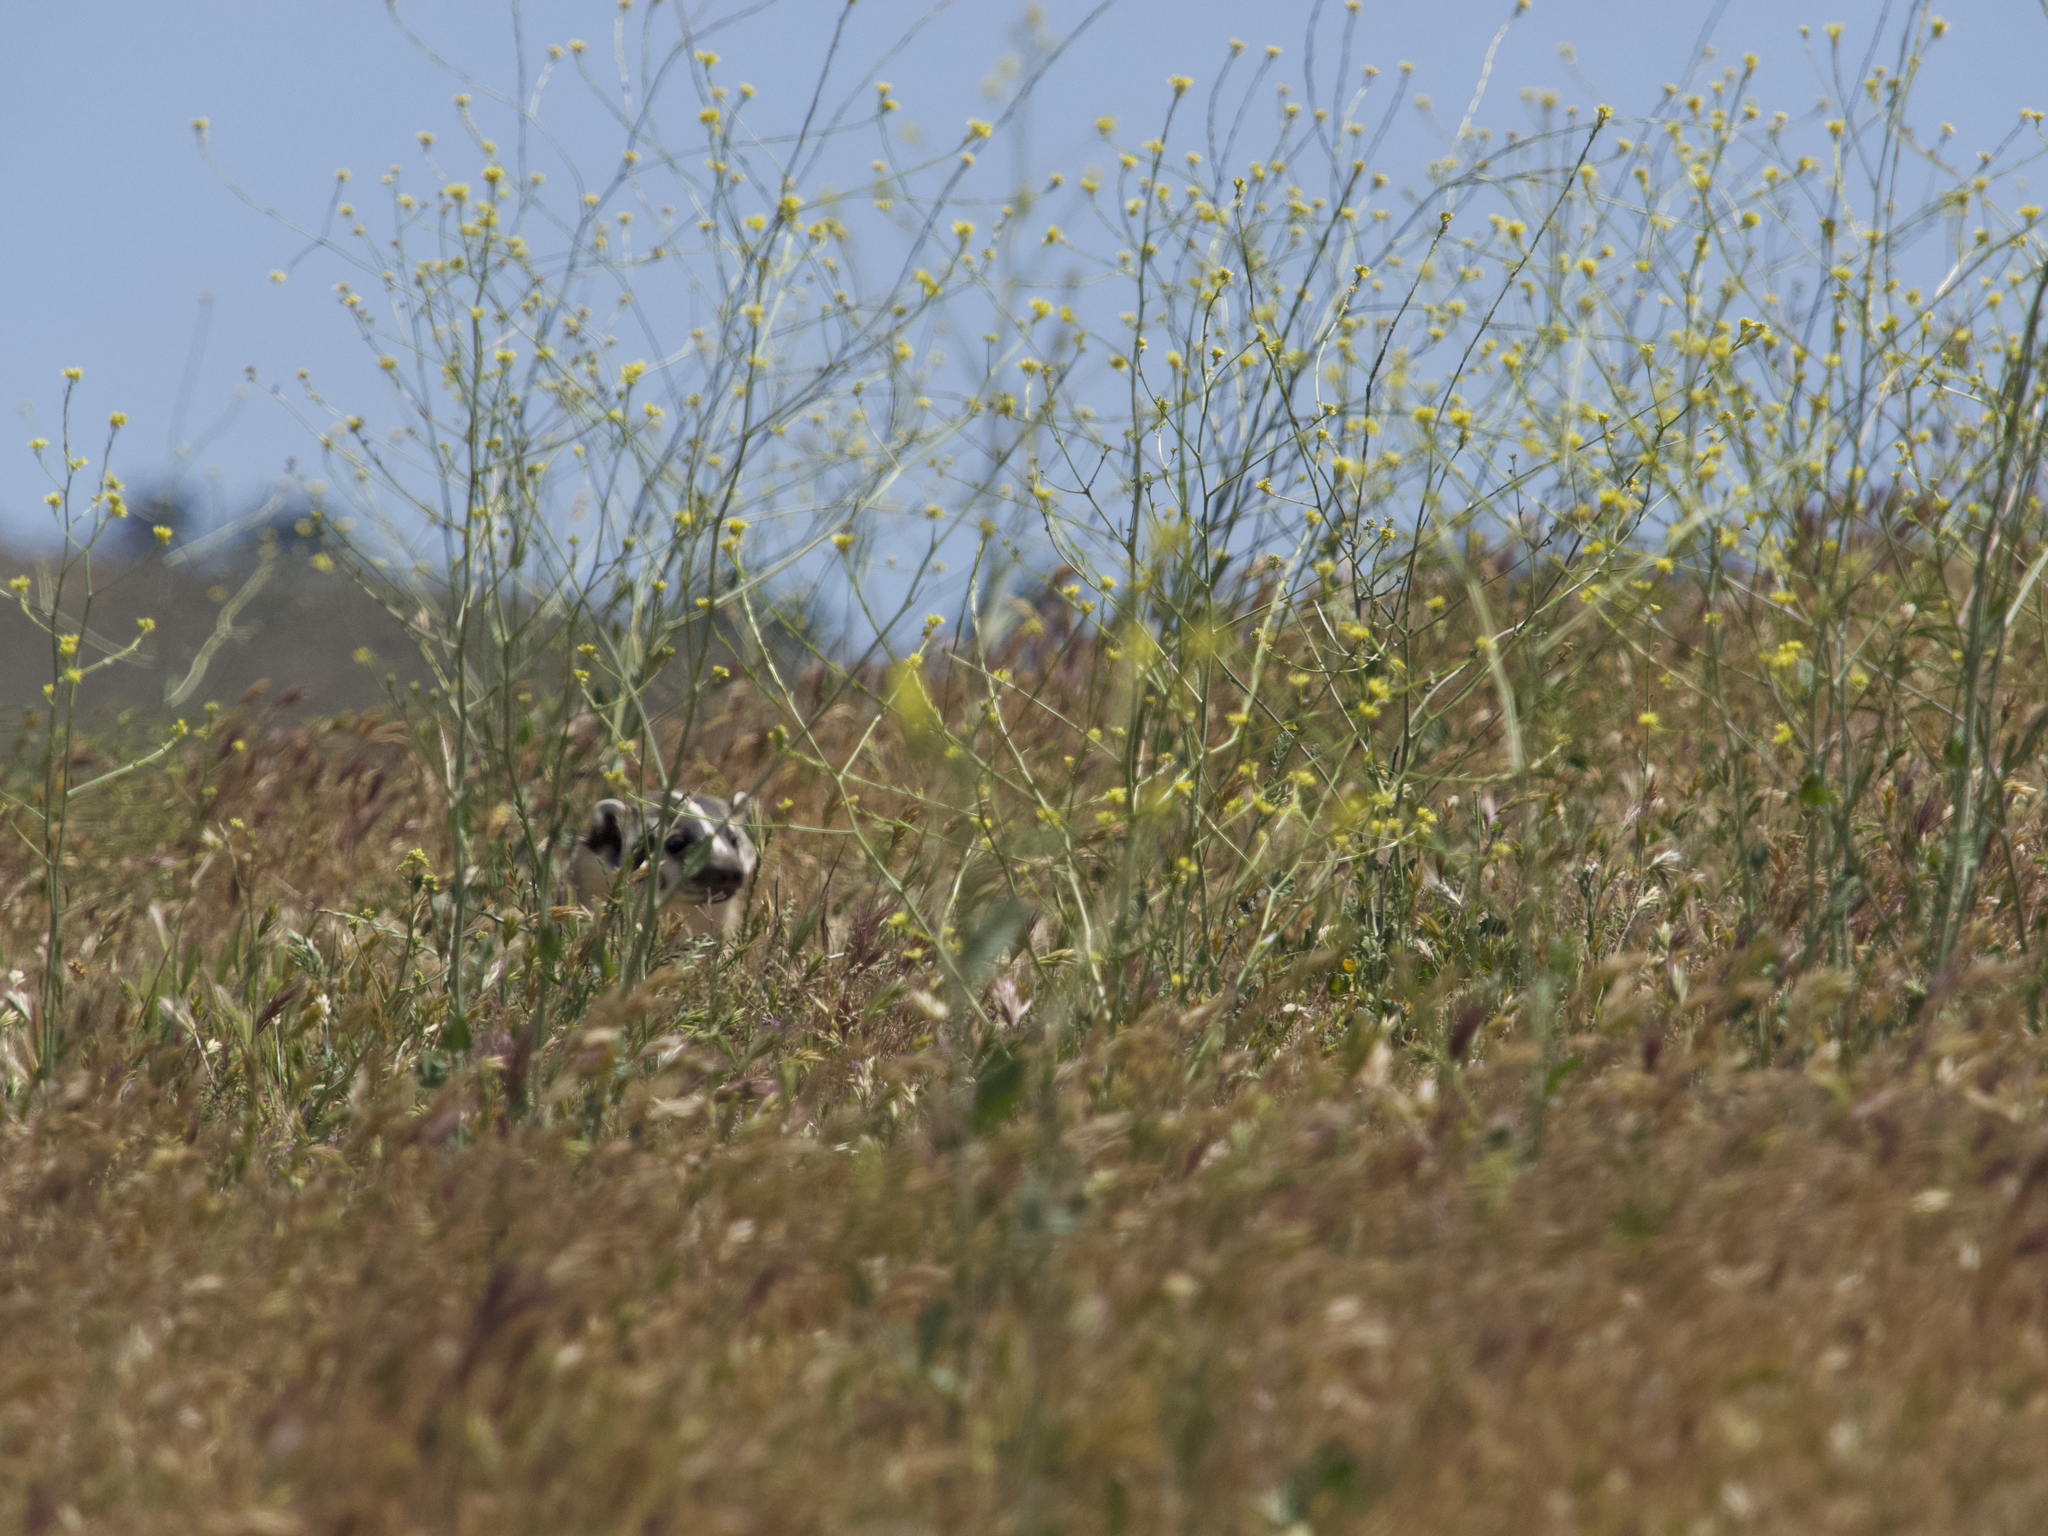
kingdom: Animalia
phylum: Chordata
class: Mammalia
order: Carnivora
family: Mustelidae
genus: Taxidea
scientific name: Taxidea taxus
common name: American badger
